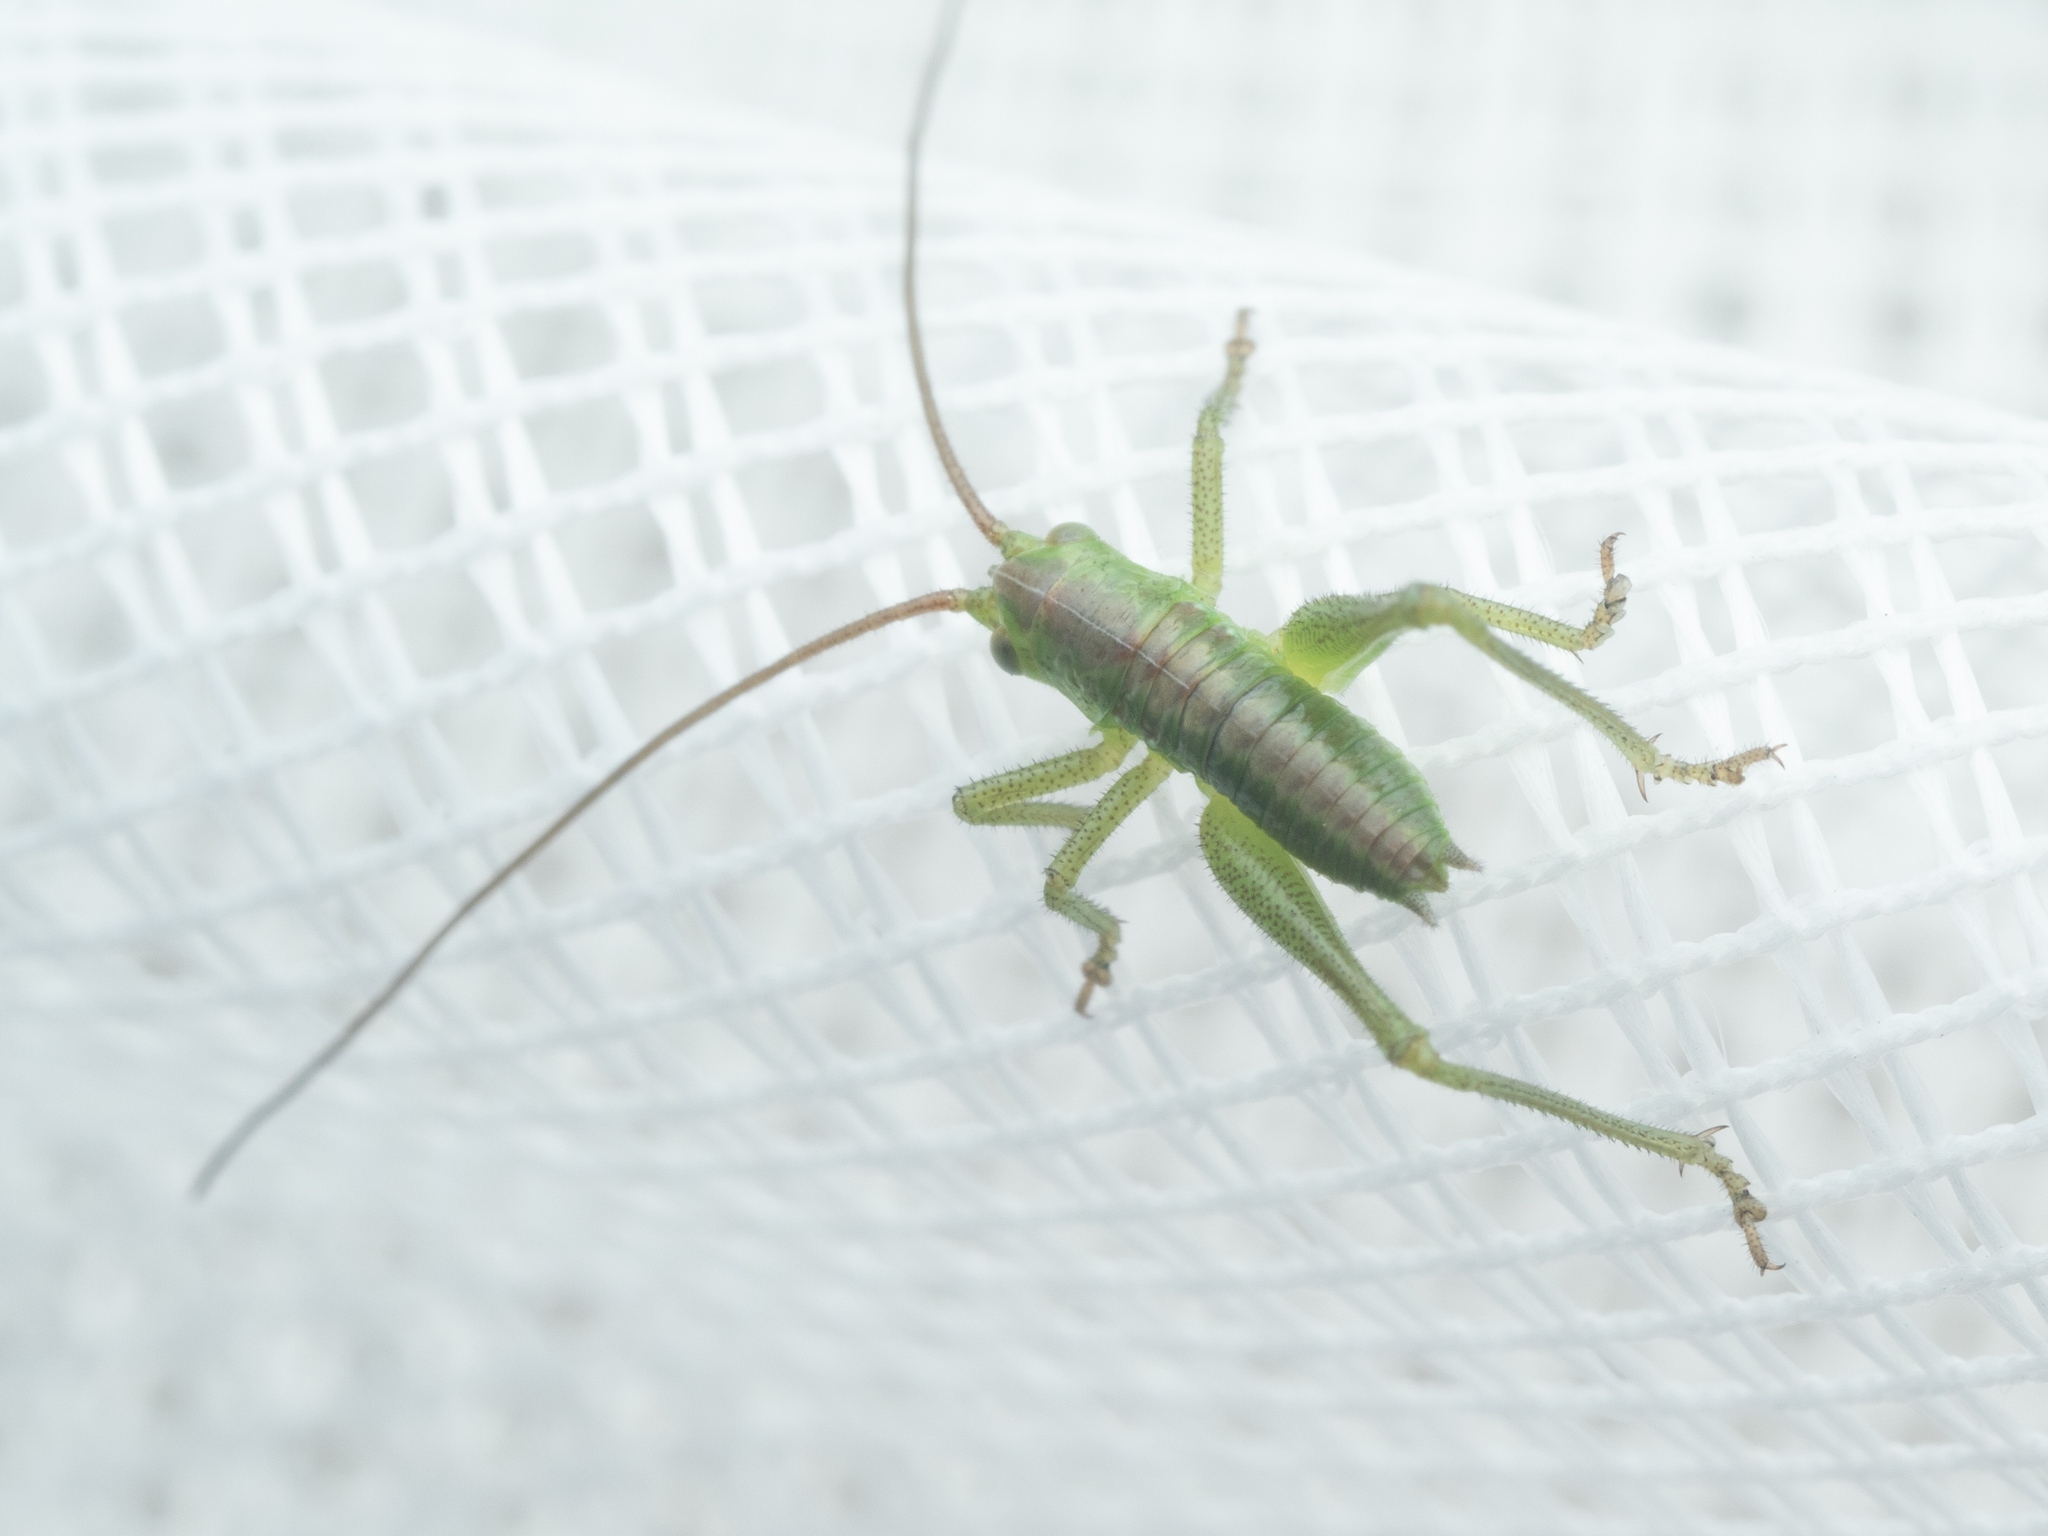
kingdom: Animalia
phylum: Arthropoda
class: Insecta
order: Orthoptera
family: Tettigoniidae
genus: Tettigonia
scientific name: Tettigonia viridissima
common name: Great green bush-cricket
